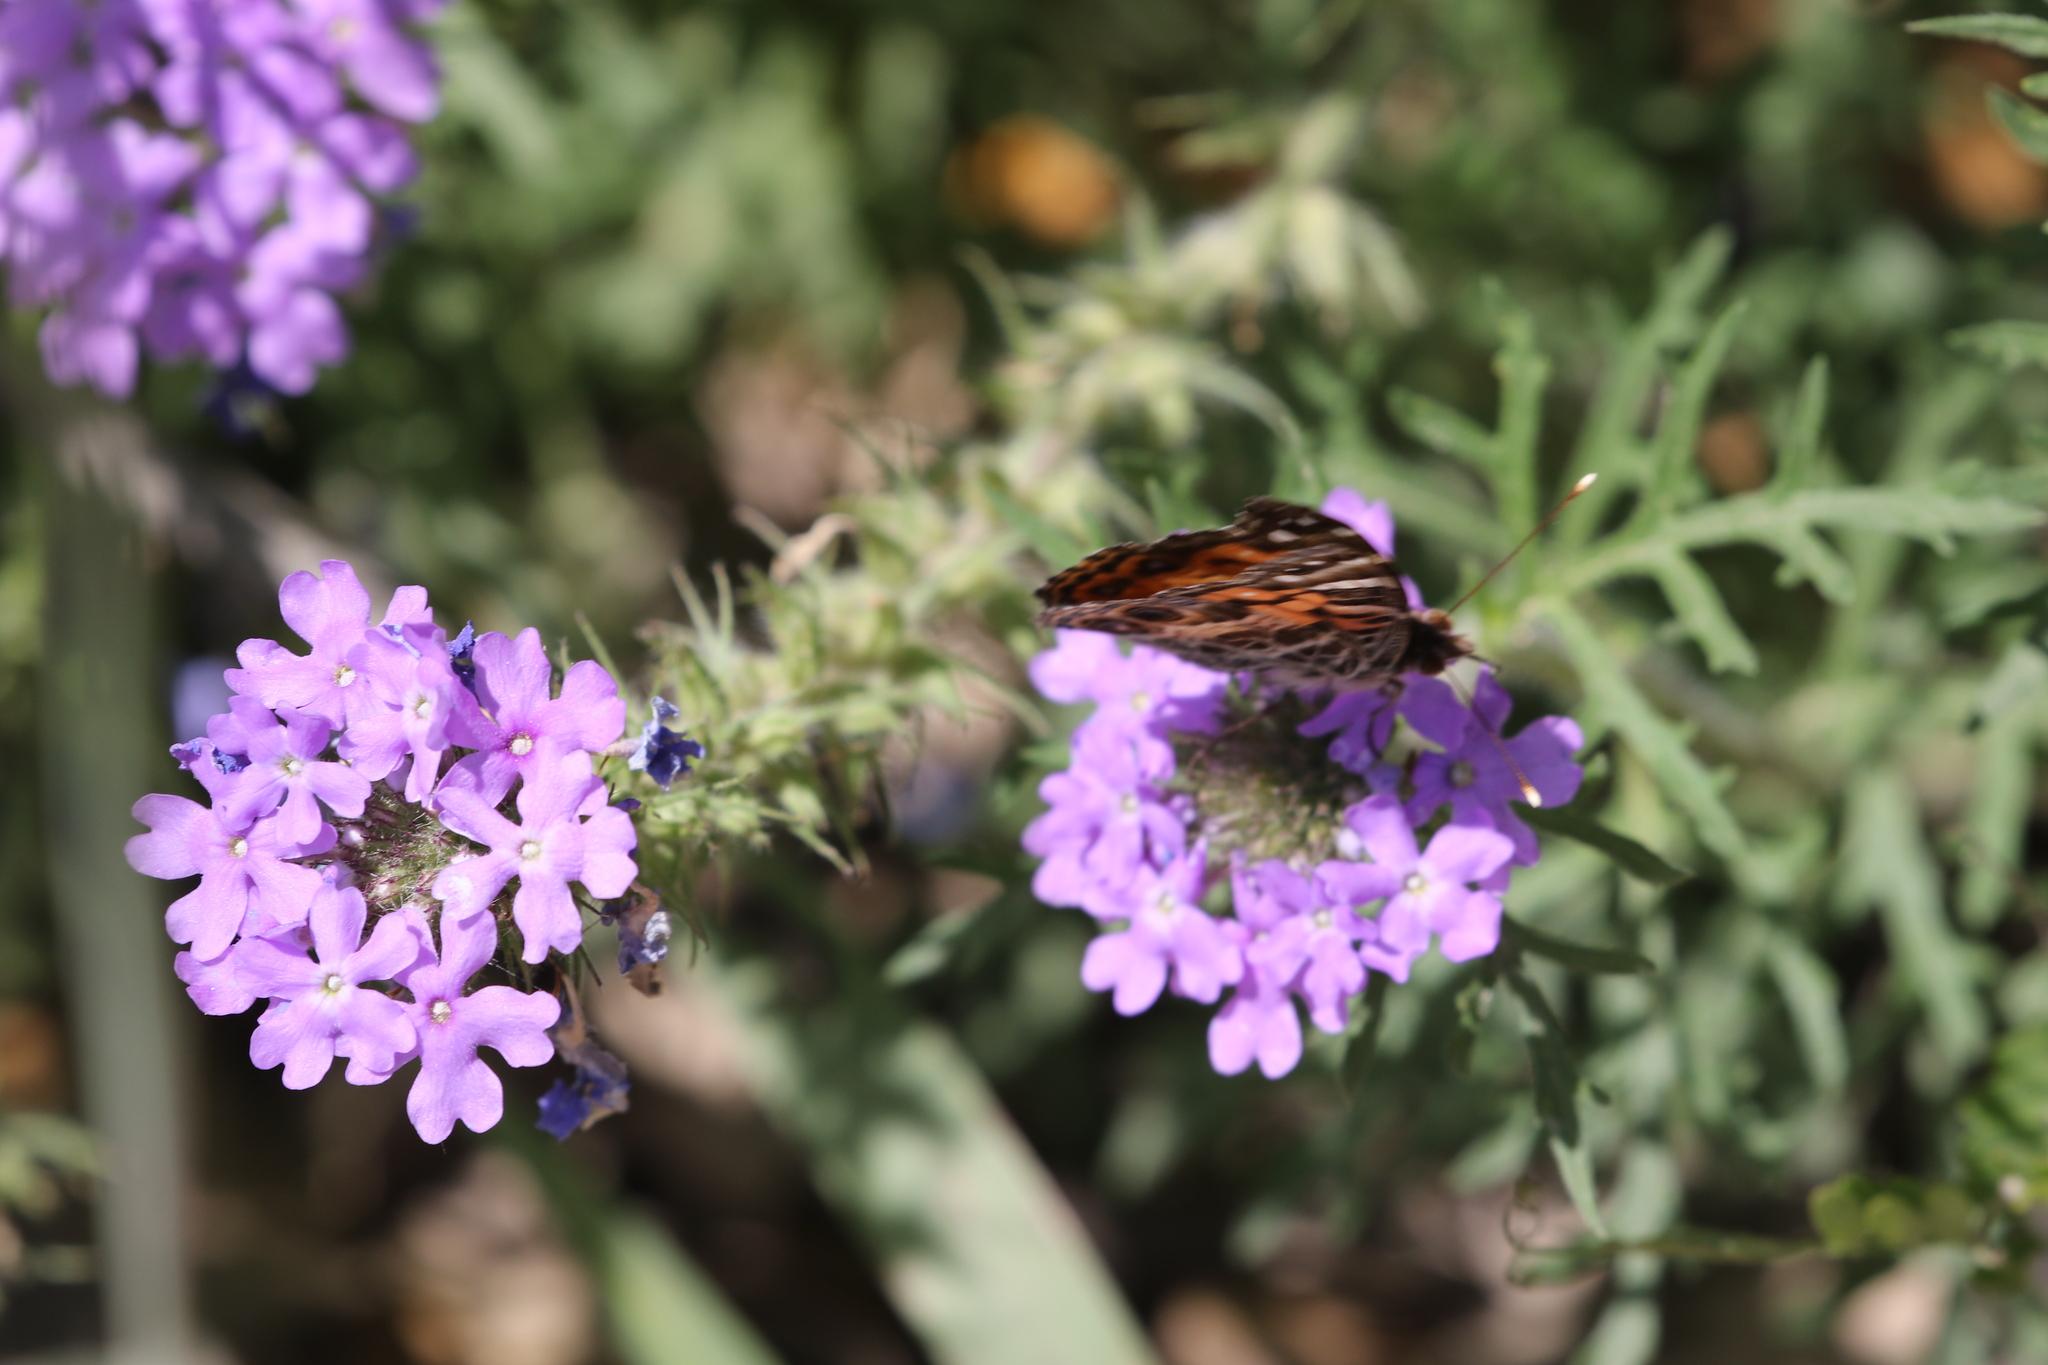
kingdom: Animalia
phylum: Arthropoda
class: Insecta
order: Lepidoptera
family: Nymphalidae
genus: Vanessa
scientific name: Vanessa virginiensis
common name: American lady
